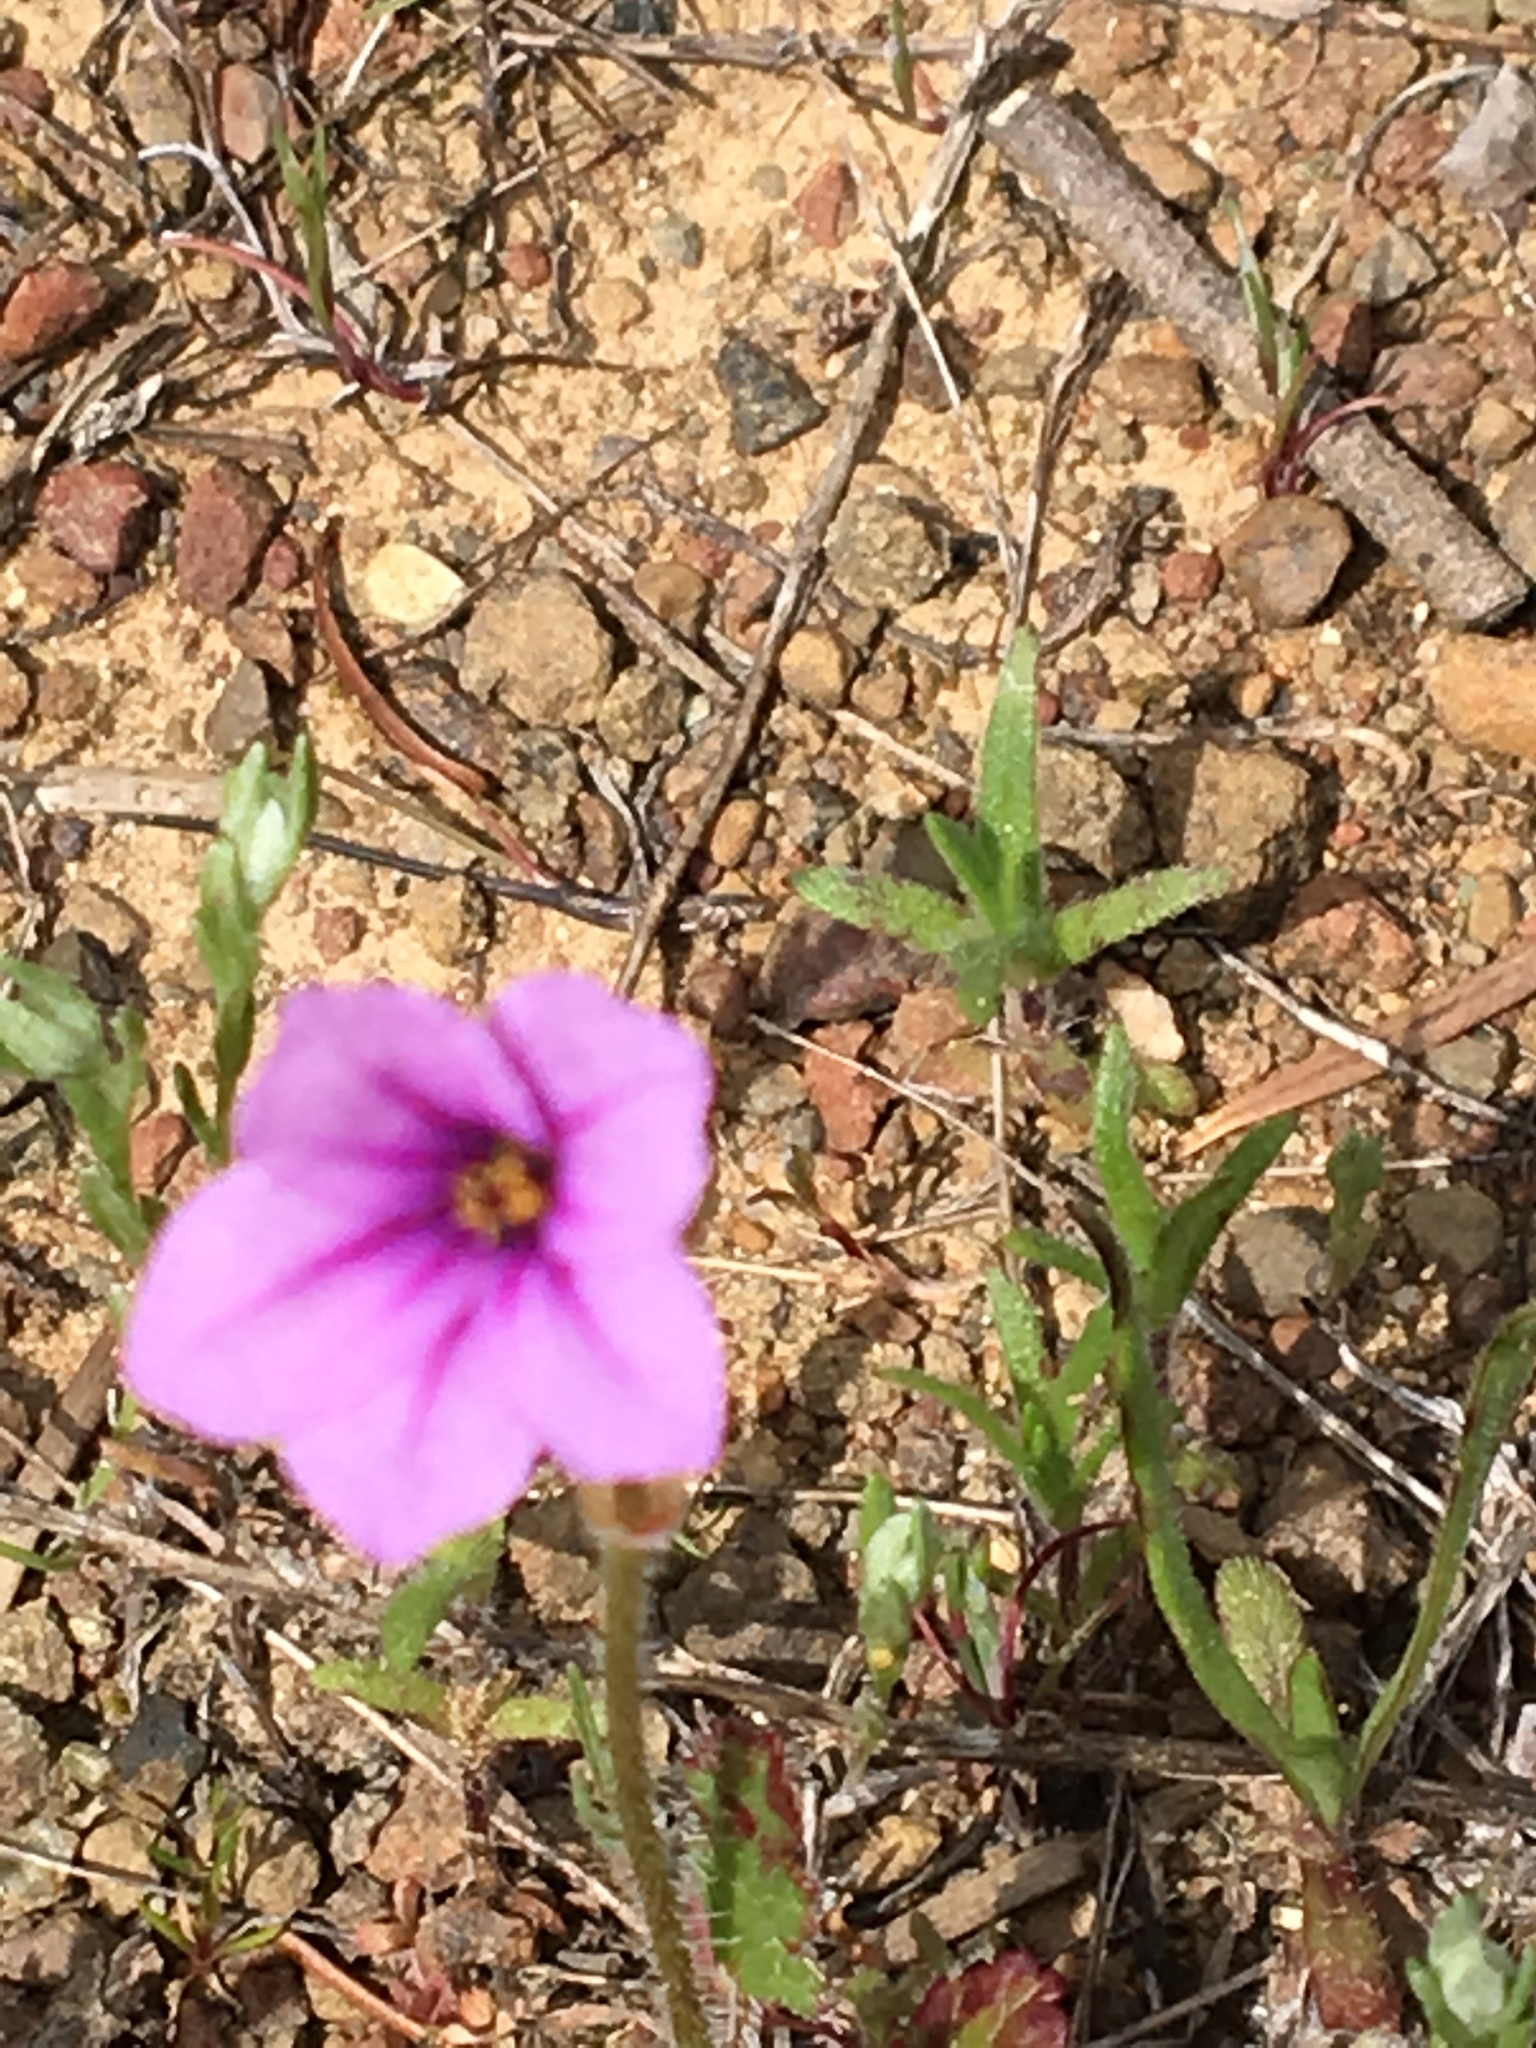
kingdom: Plantae
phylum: Tracheophyta
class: Magnoliopsida
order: Geraniales
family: Geraniaceae
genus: Erodium
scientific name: Erodium botrys
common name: Mediterranean stork's-bill
